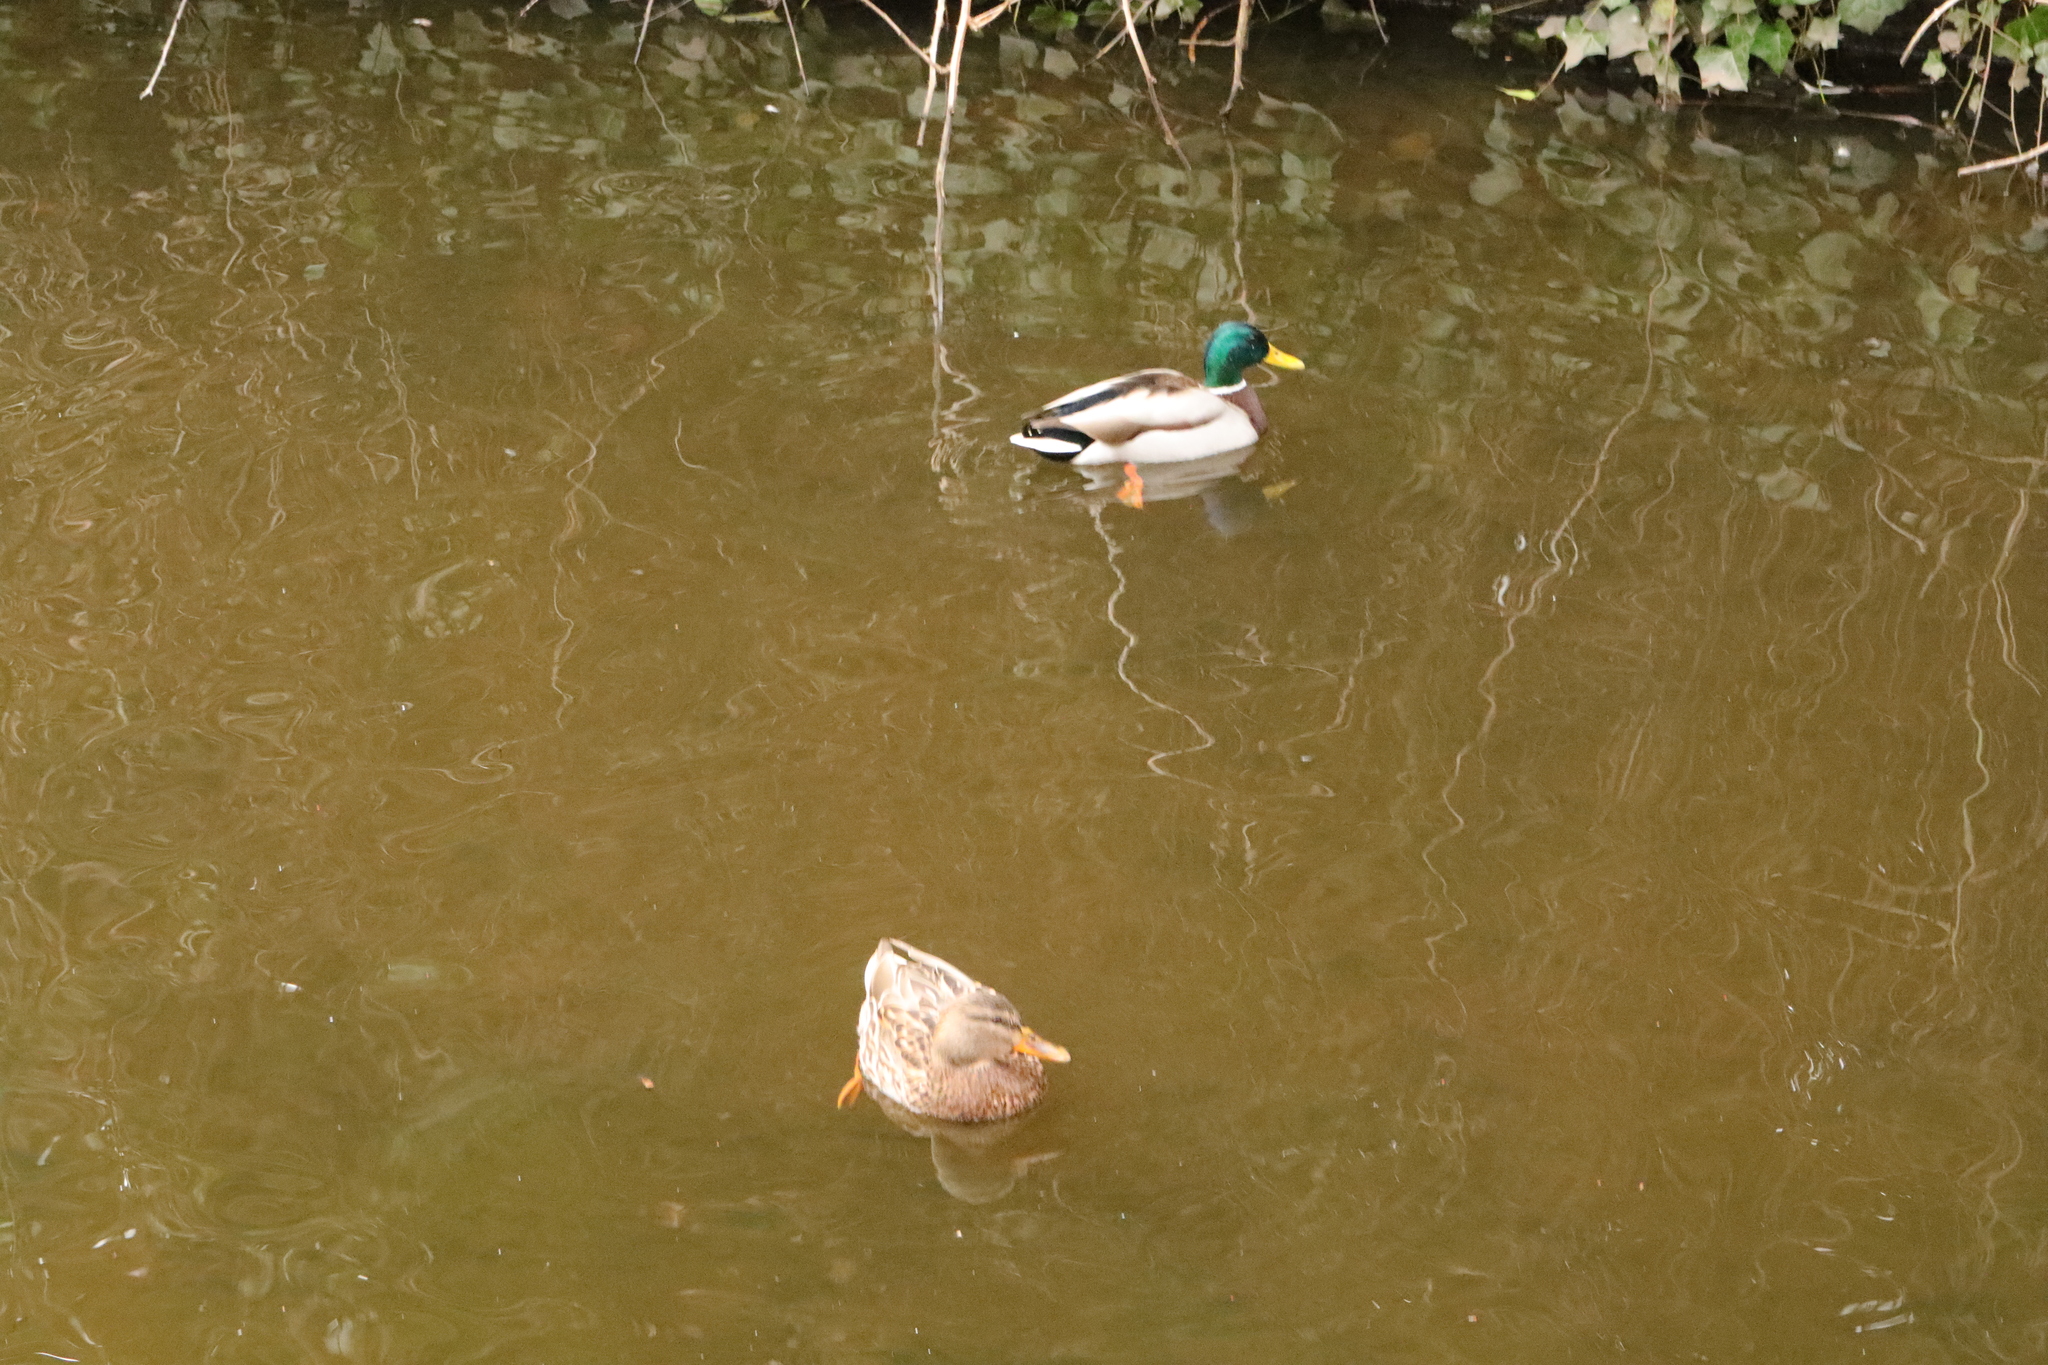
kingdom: Animalia
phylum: Chordata
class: Aves
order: Anseriformes
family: Anatidae
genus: Anas
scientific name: Anas platyrhynchos
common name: Mallard
